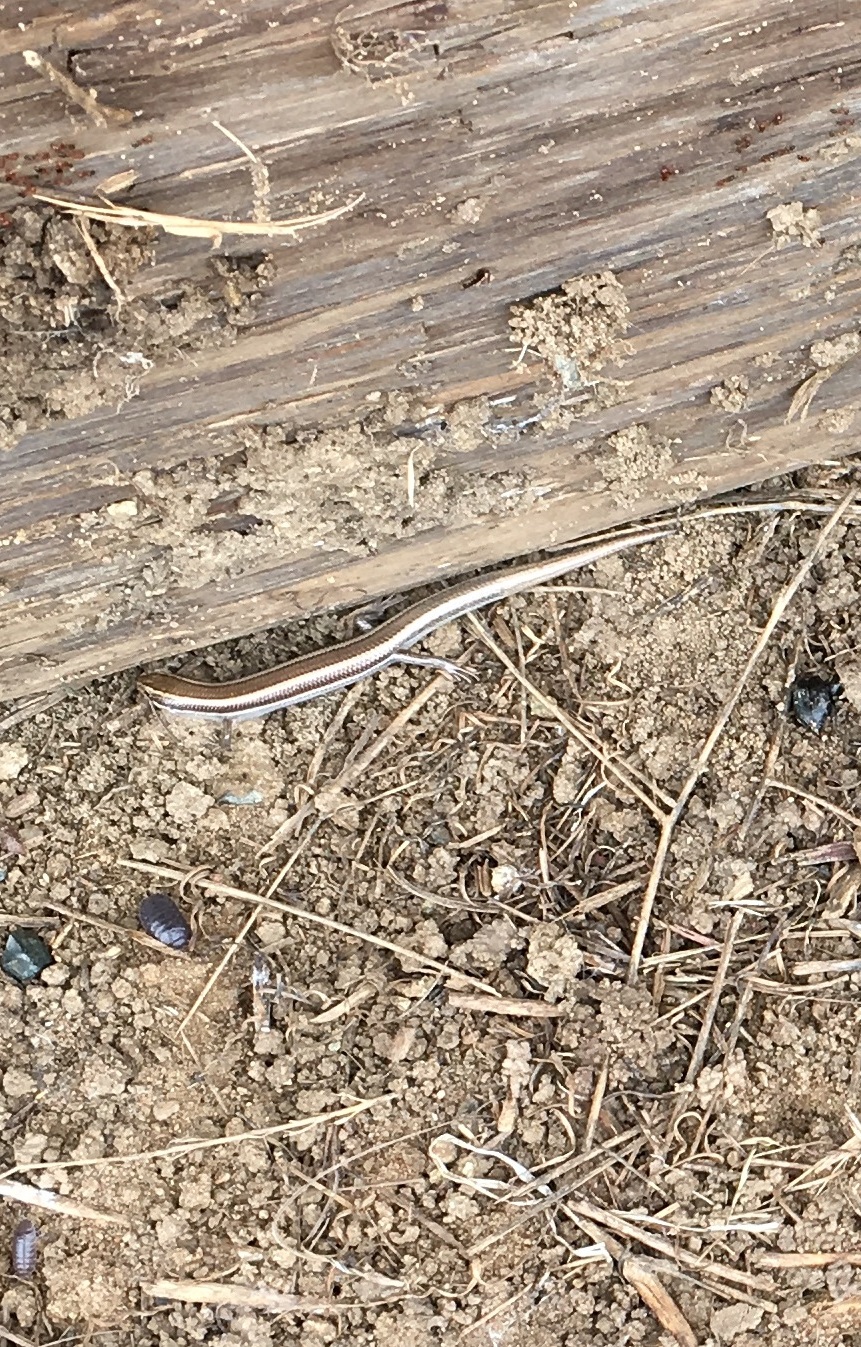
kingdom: Animalia
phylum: Chordata
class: Squamata
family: Scincidae
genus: Plestiodon
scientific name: Plestiodon skiltonianus
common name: Coronado island skink [interparietalis]
